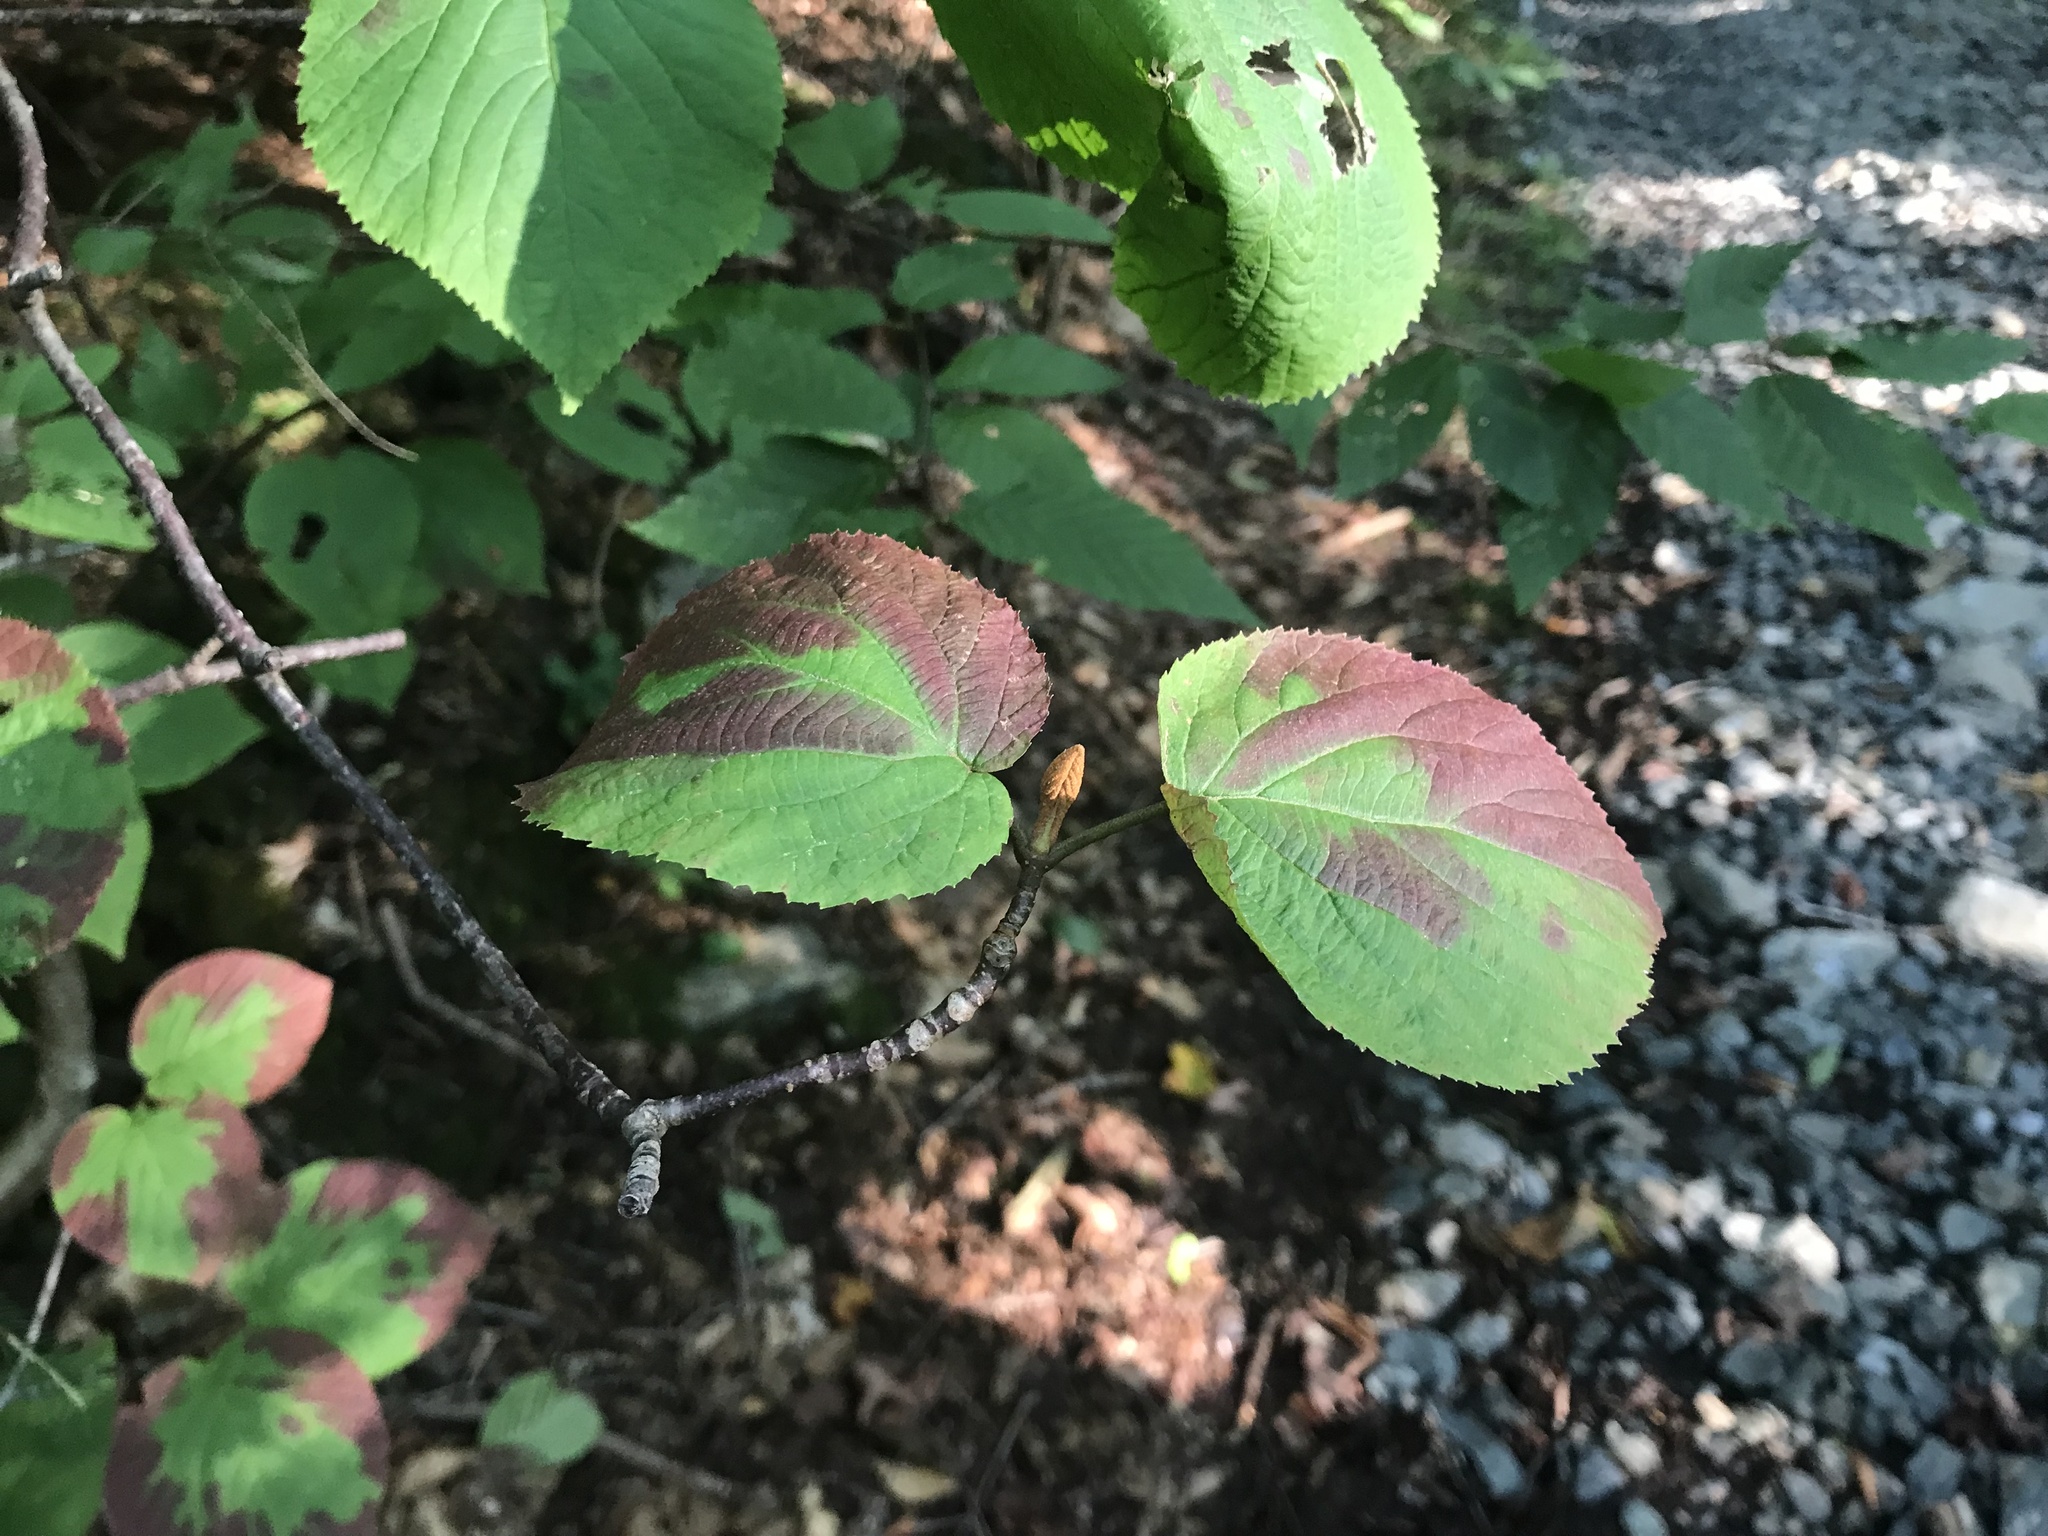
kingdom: Plantae
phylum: Tracheophyta
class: Magnoliopsida
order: Dipsacales
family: Viburnaceae
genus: Viburnum
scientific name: Viburnum lantanoides
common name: Hobblebush
